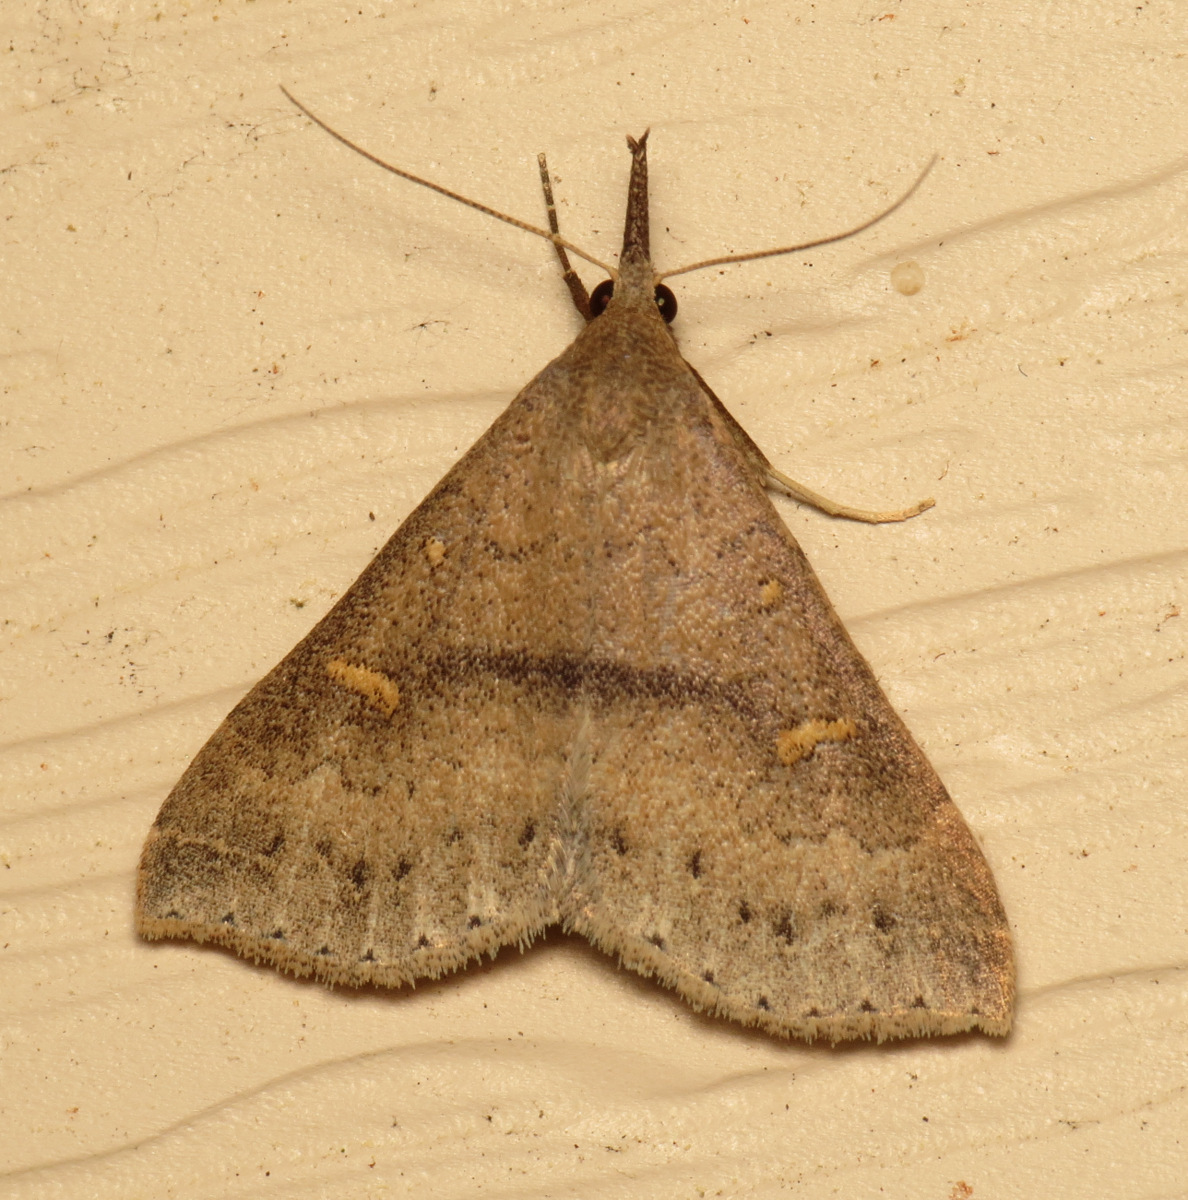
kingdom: Animalia
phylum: Arthropoda
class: Insecta
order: Lepidoptera
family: Erebidae
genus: Renia
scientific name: Renia adspergillus
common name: Speckled renia moth
